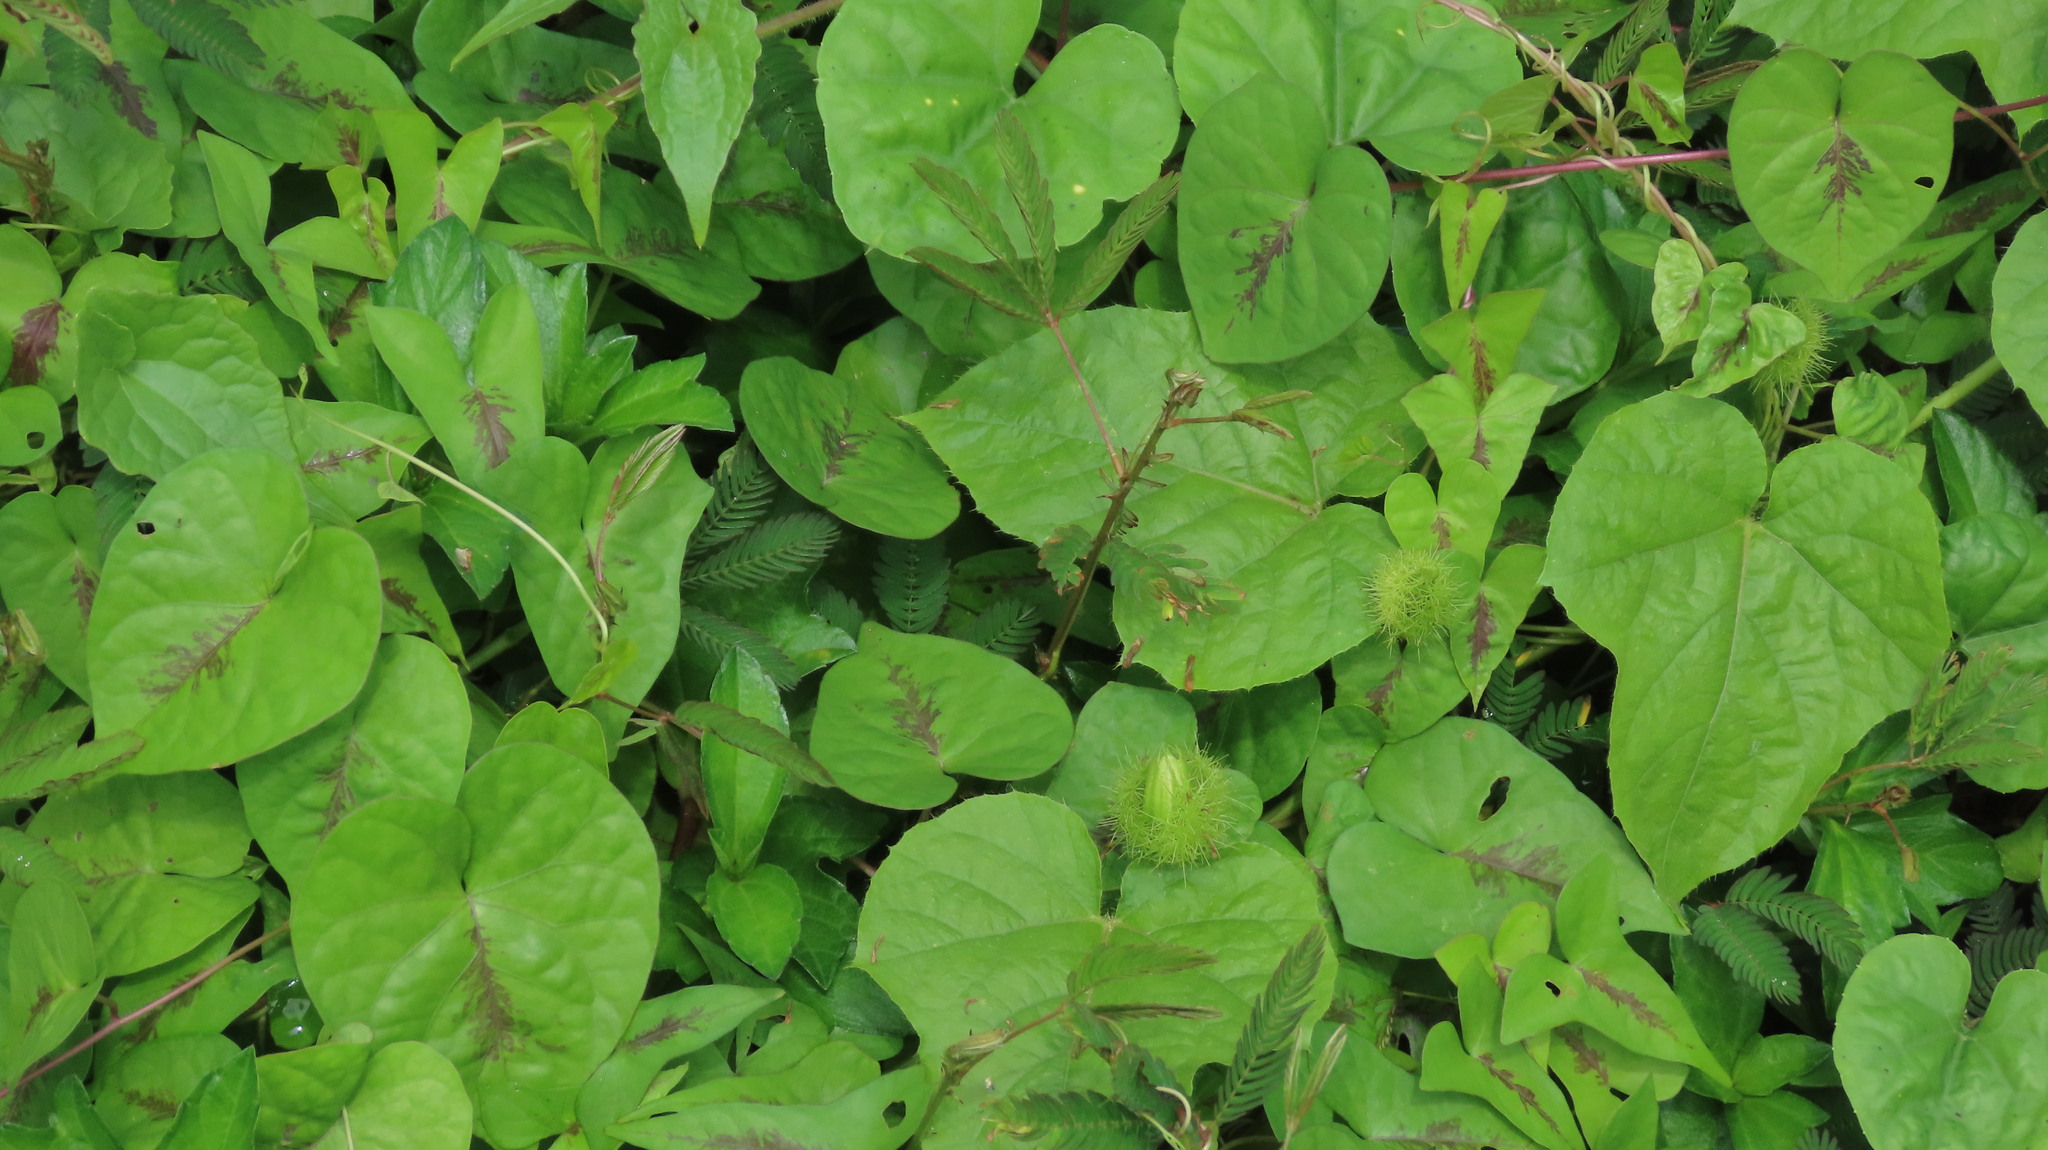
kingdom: Plantae
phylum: Tracheophyta
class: Magnoliopsida
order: Malpighiales
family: Passifloraceae
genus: Passiflora
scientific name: Passiflora vesicaria
